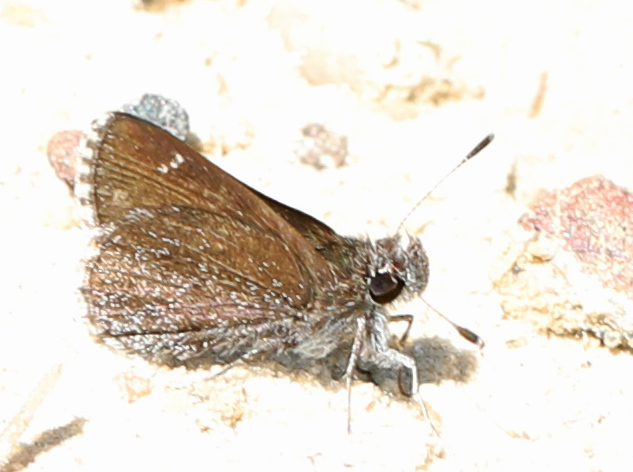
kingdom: Animalia
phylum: Arthropoda
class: Insecta
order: Lepidoptera
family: Hesperiidae
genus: Mastor
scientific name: Mastor alternata
